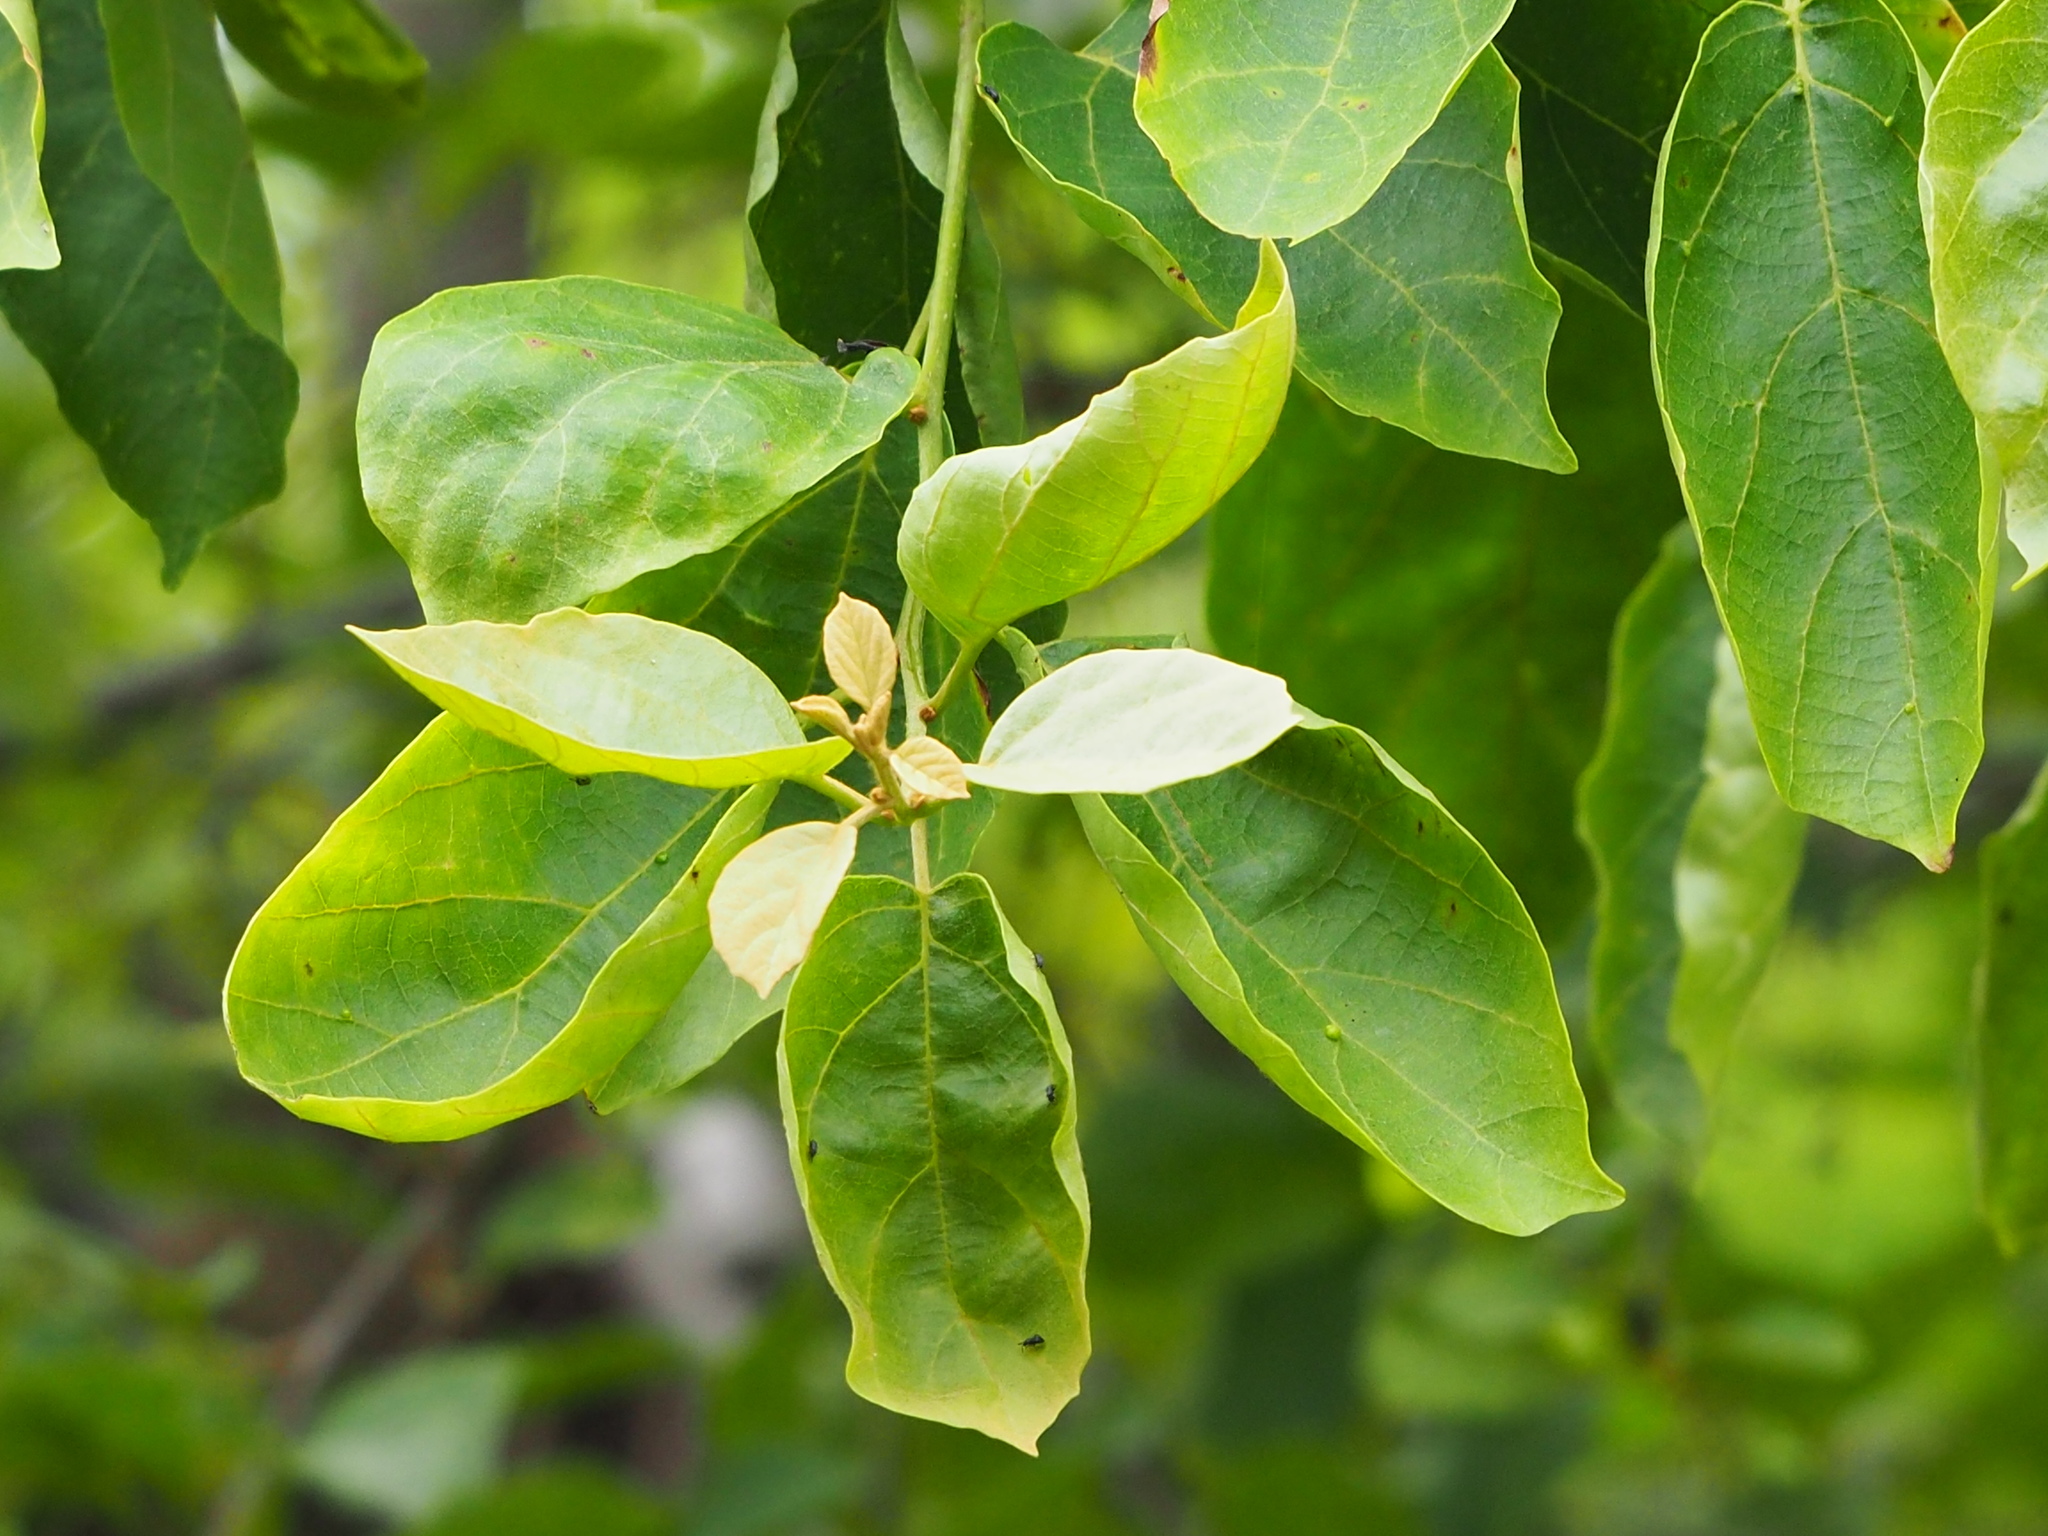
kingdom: Plantae
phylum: Tracheophyta
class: Magnoliopsida
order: Boraginales
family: Cordiaceae
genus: Cordia
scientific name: Cordia dichotoma
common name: Fragrant manjack
